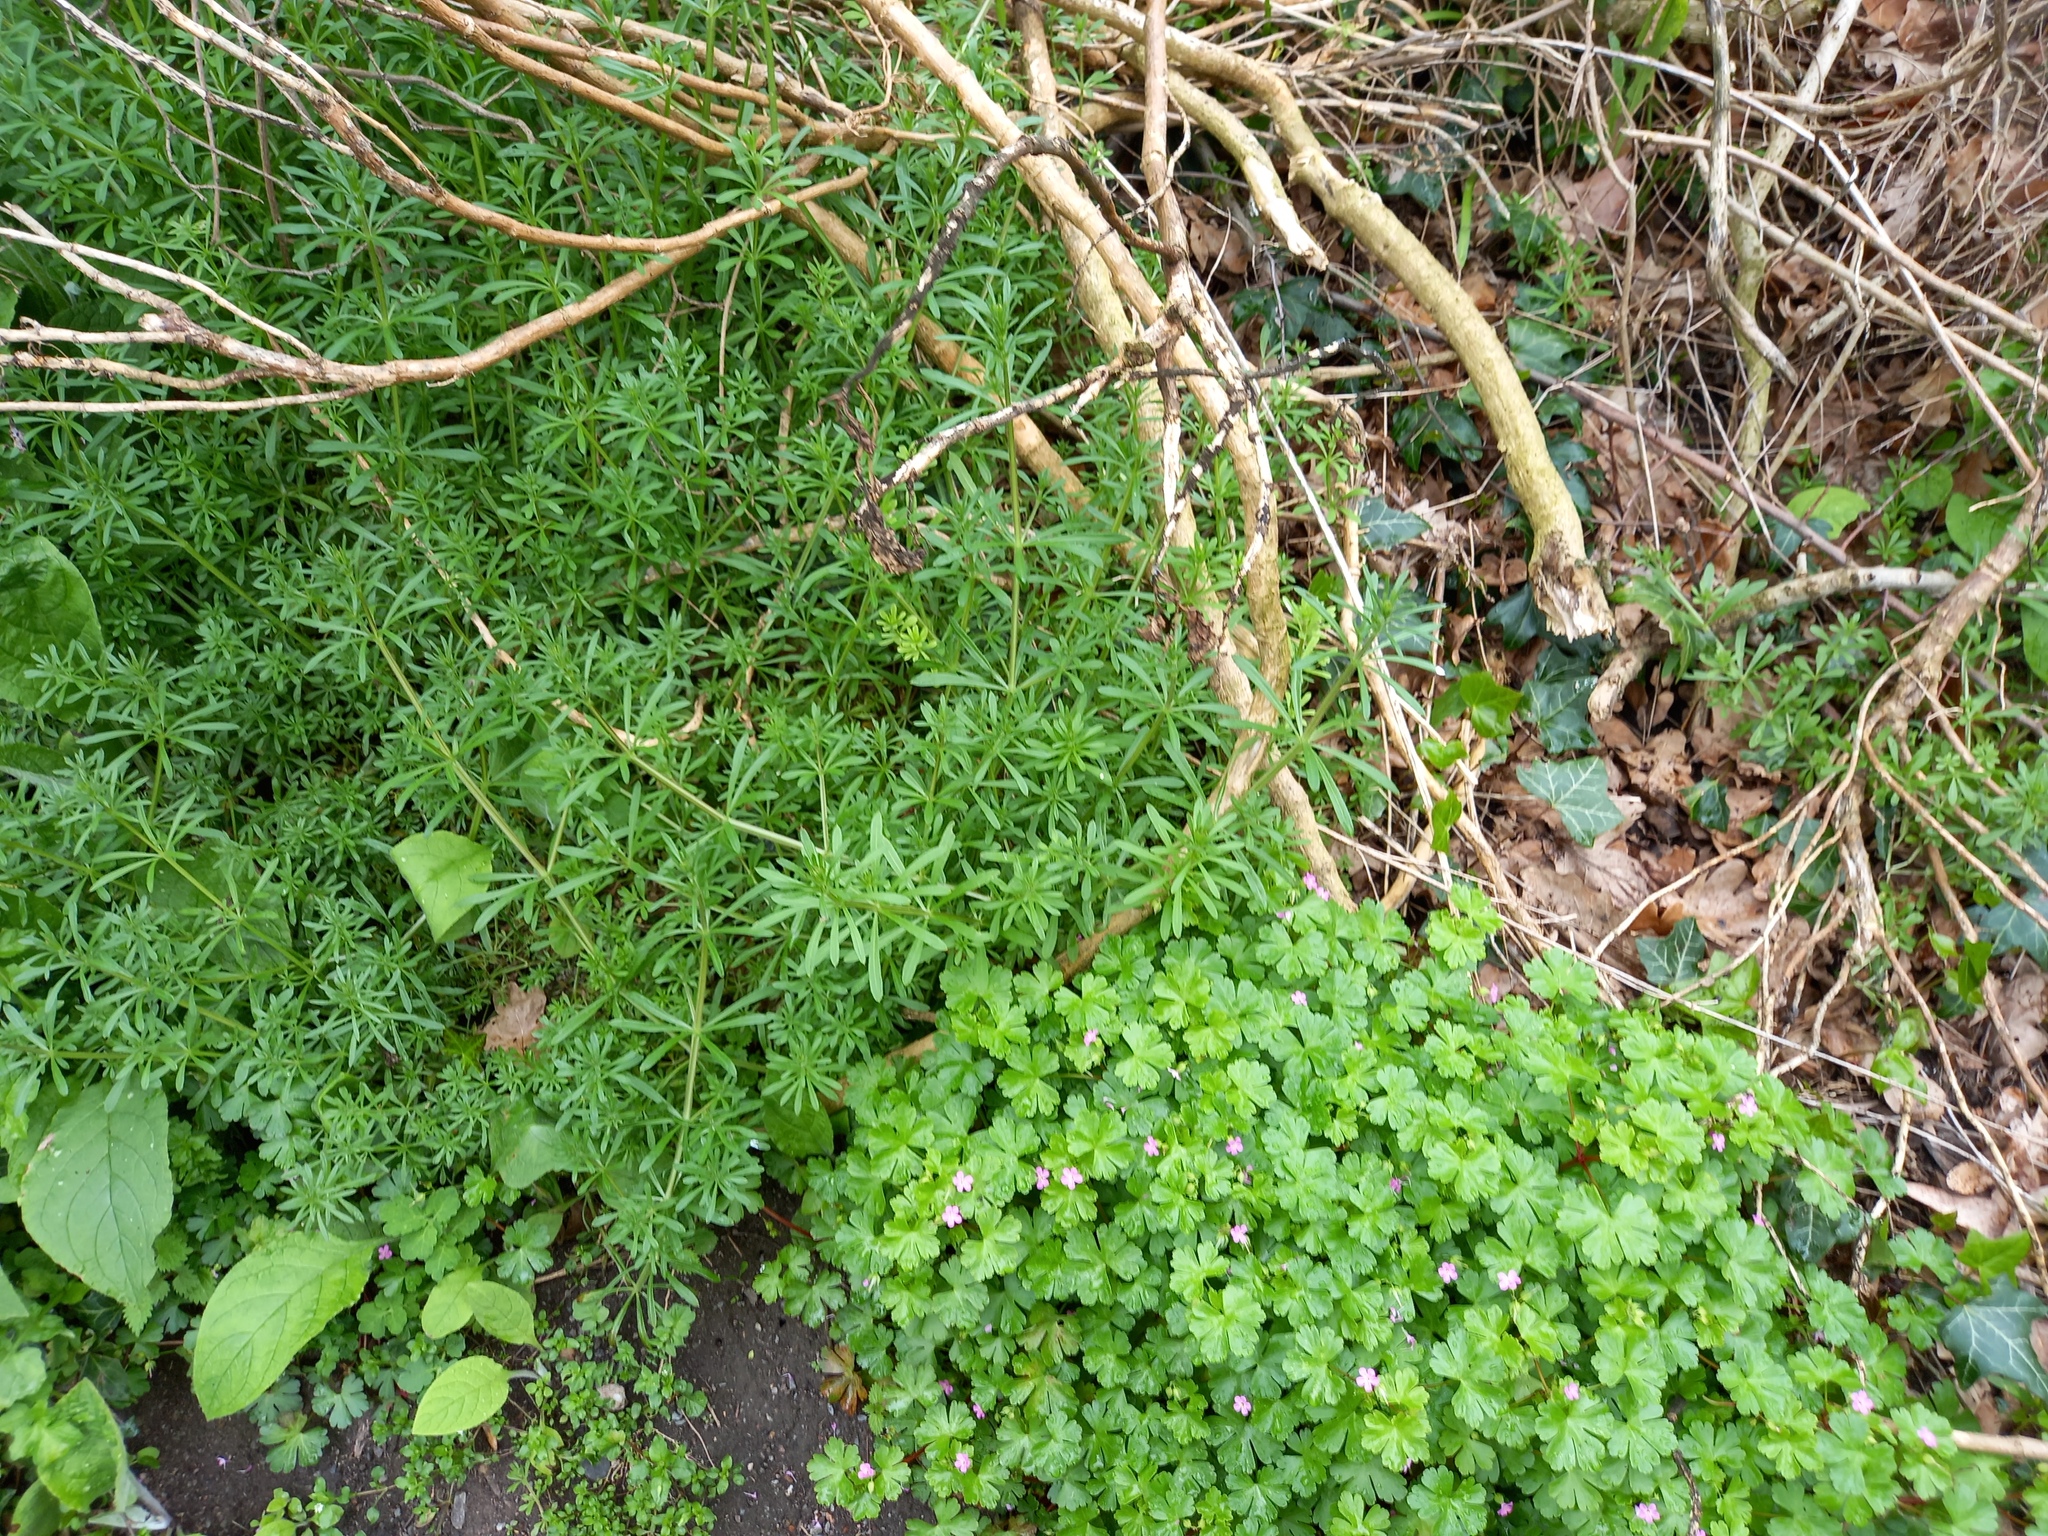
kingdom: Plantae
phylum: Tracheophyta
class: Magnoliopsida
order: Gentianales
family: Rubiaceae
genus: Galium
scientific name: Galium aparine
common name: Cleavers
